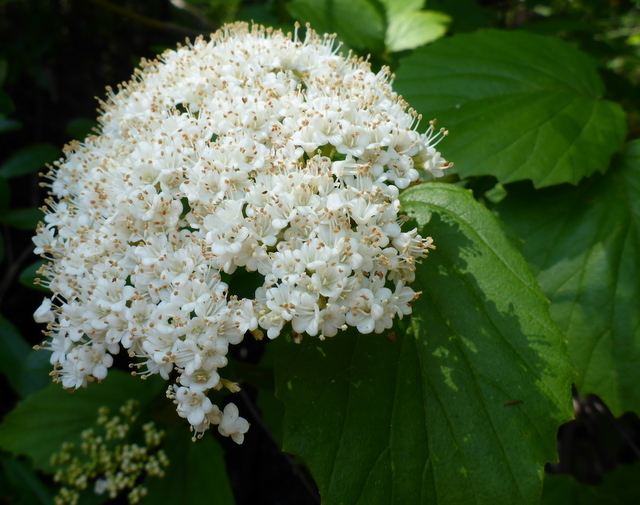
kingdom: Plantae
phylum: Tracheophyta
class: Magnoliopsida
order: Dipsacales
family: Viburnaceae
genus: Viburnum
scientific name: Viburnum scabrellum
